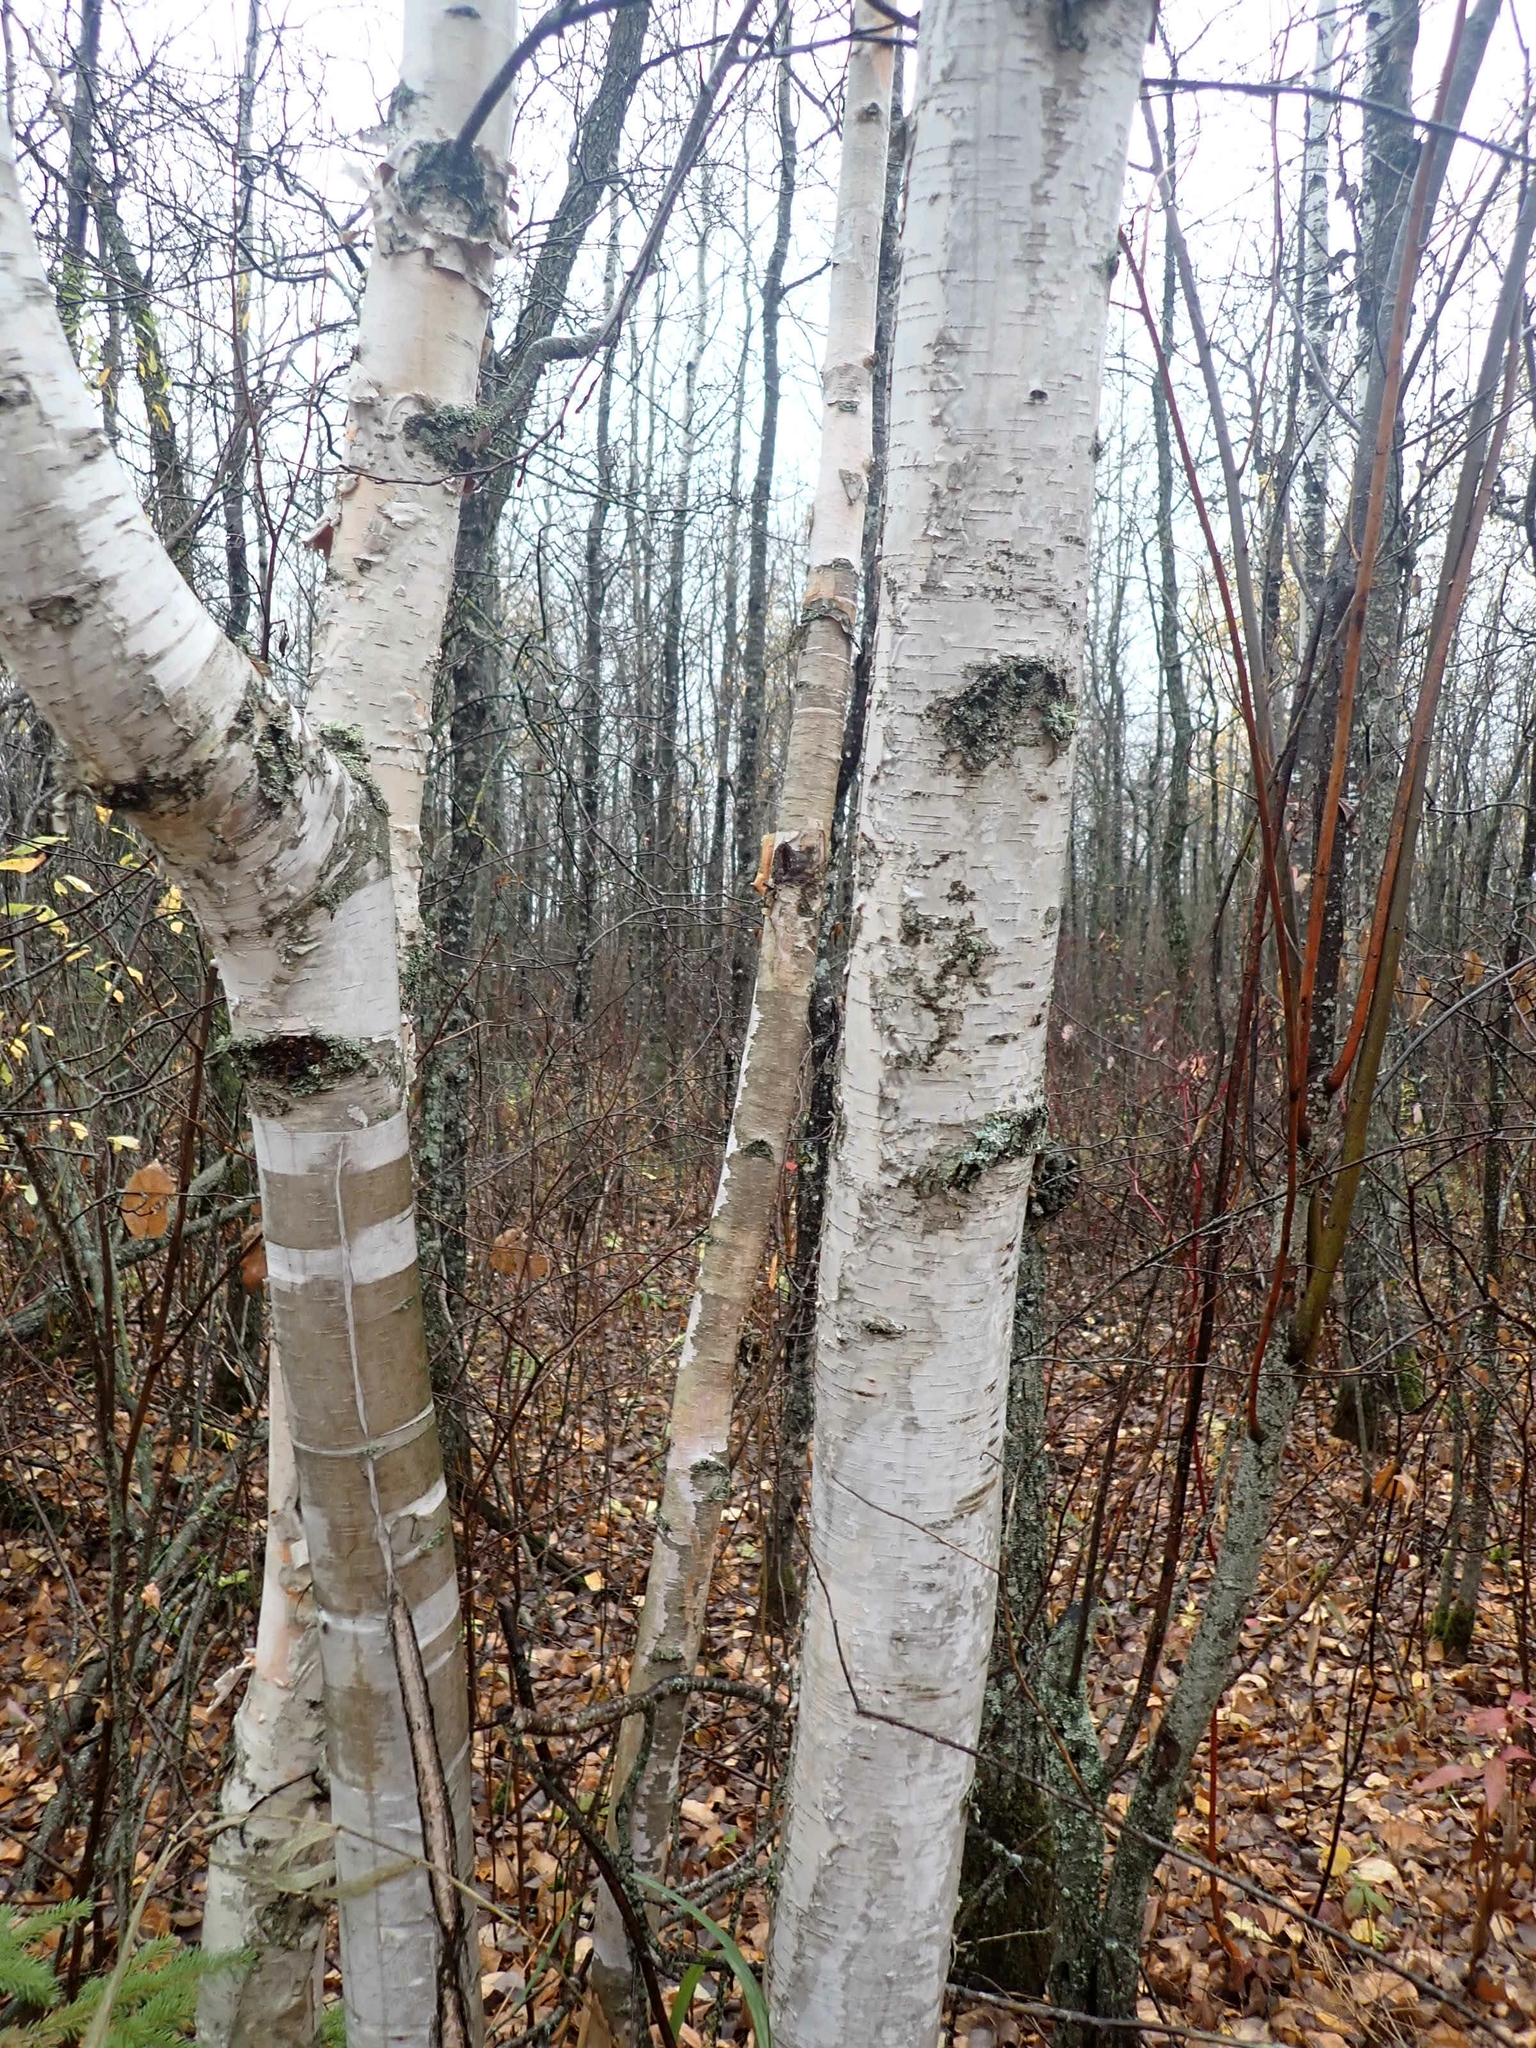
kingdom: Plantae
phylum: Tracheophyta
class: Magnoliopsida
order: Fagales
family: Betulaceae
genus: Betula
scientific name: Betula papyrifera
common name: Paper birch
